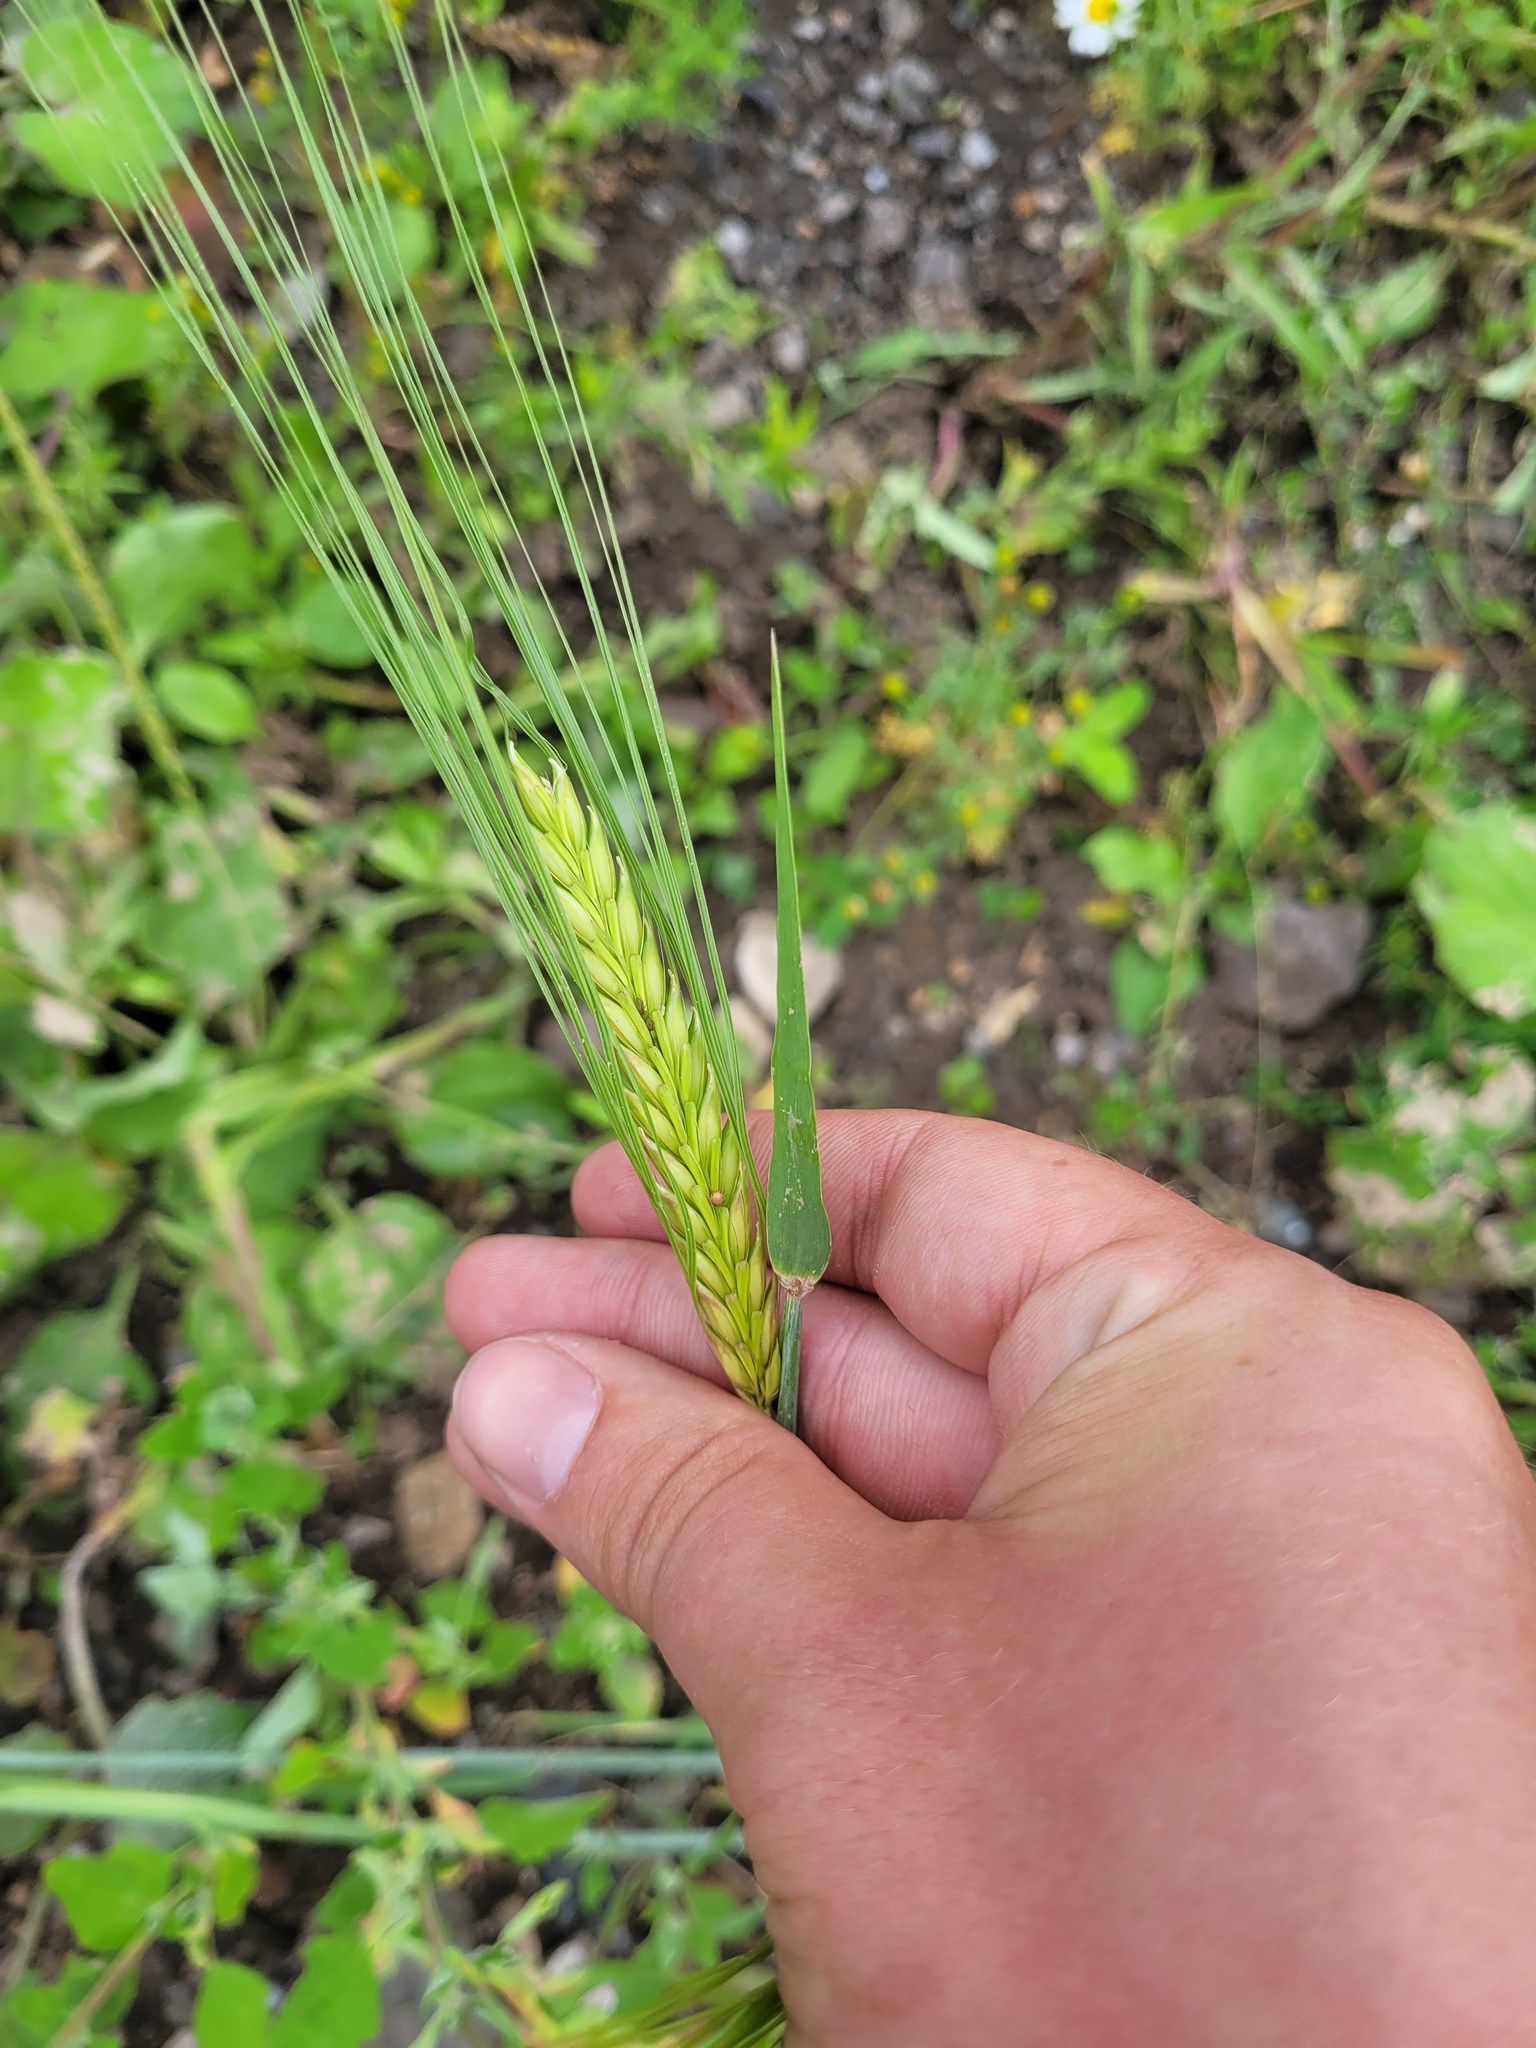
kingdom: Plantae
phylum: Tracheophyta
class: Liliopsida
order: Poales
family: Poaceae
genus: Hordeum
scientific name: Hordeum vulgare
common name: Common barley
